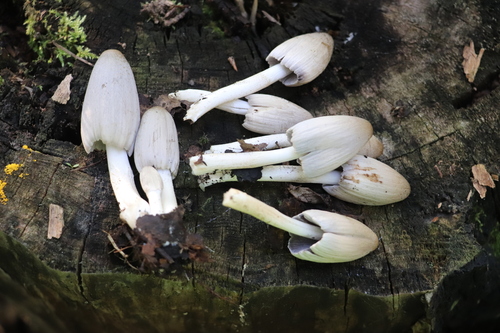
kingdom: Fungi
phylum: Basidiomycota
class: Agaricomycetes
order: Agaricales
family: Psathyrellaceae
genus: Coprinopsis
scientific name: Coprinopsis atramentaria
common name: Common ink-cap
